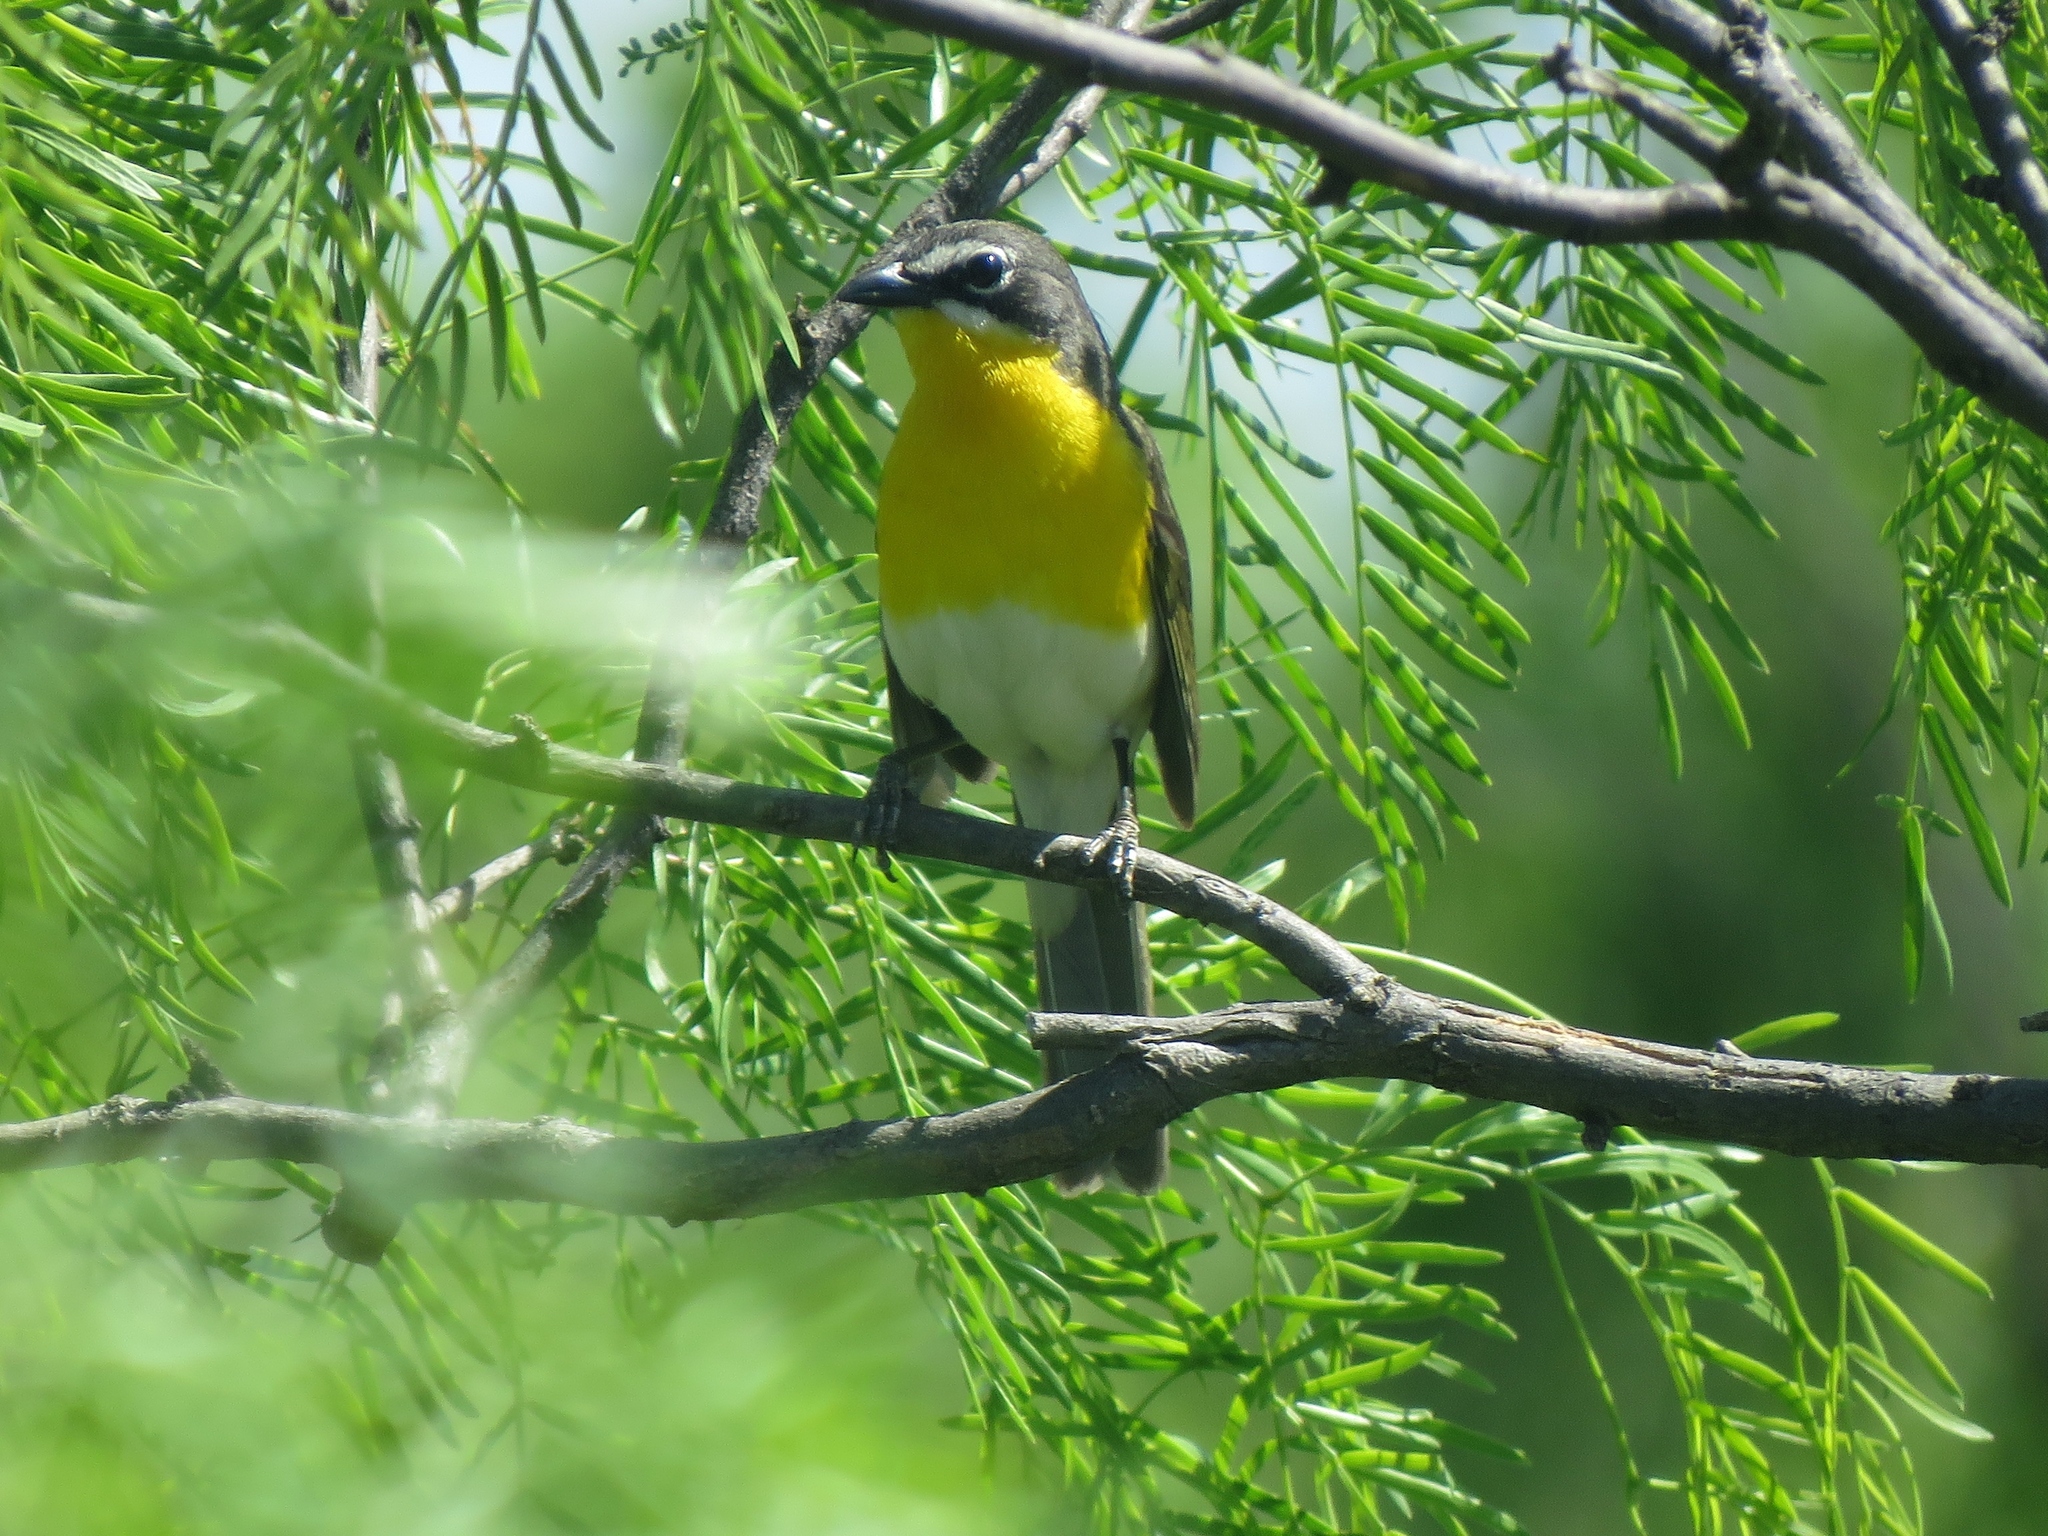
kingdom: Animalia
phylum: Chordata
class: Aves
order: Passeriformes
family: Parulidae
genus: Icteria
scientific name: Icteria virens
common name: Yellow-breasted chat
